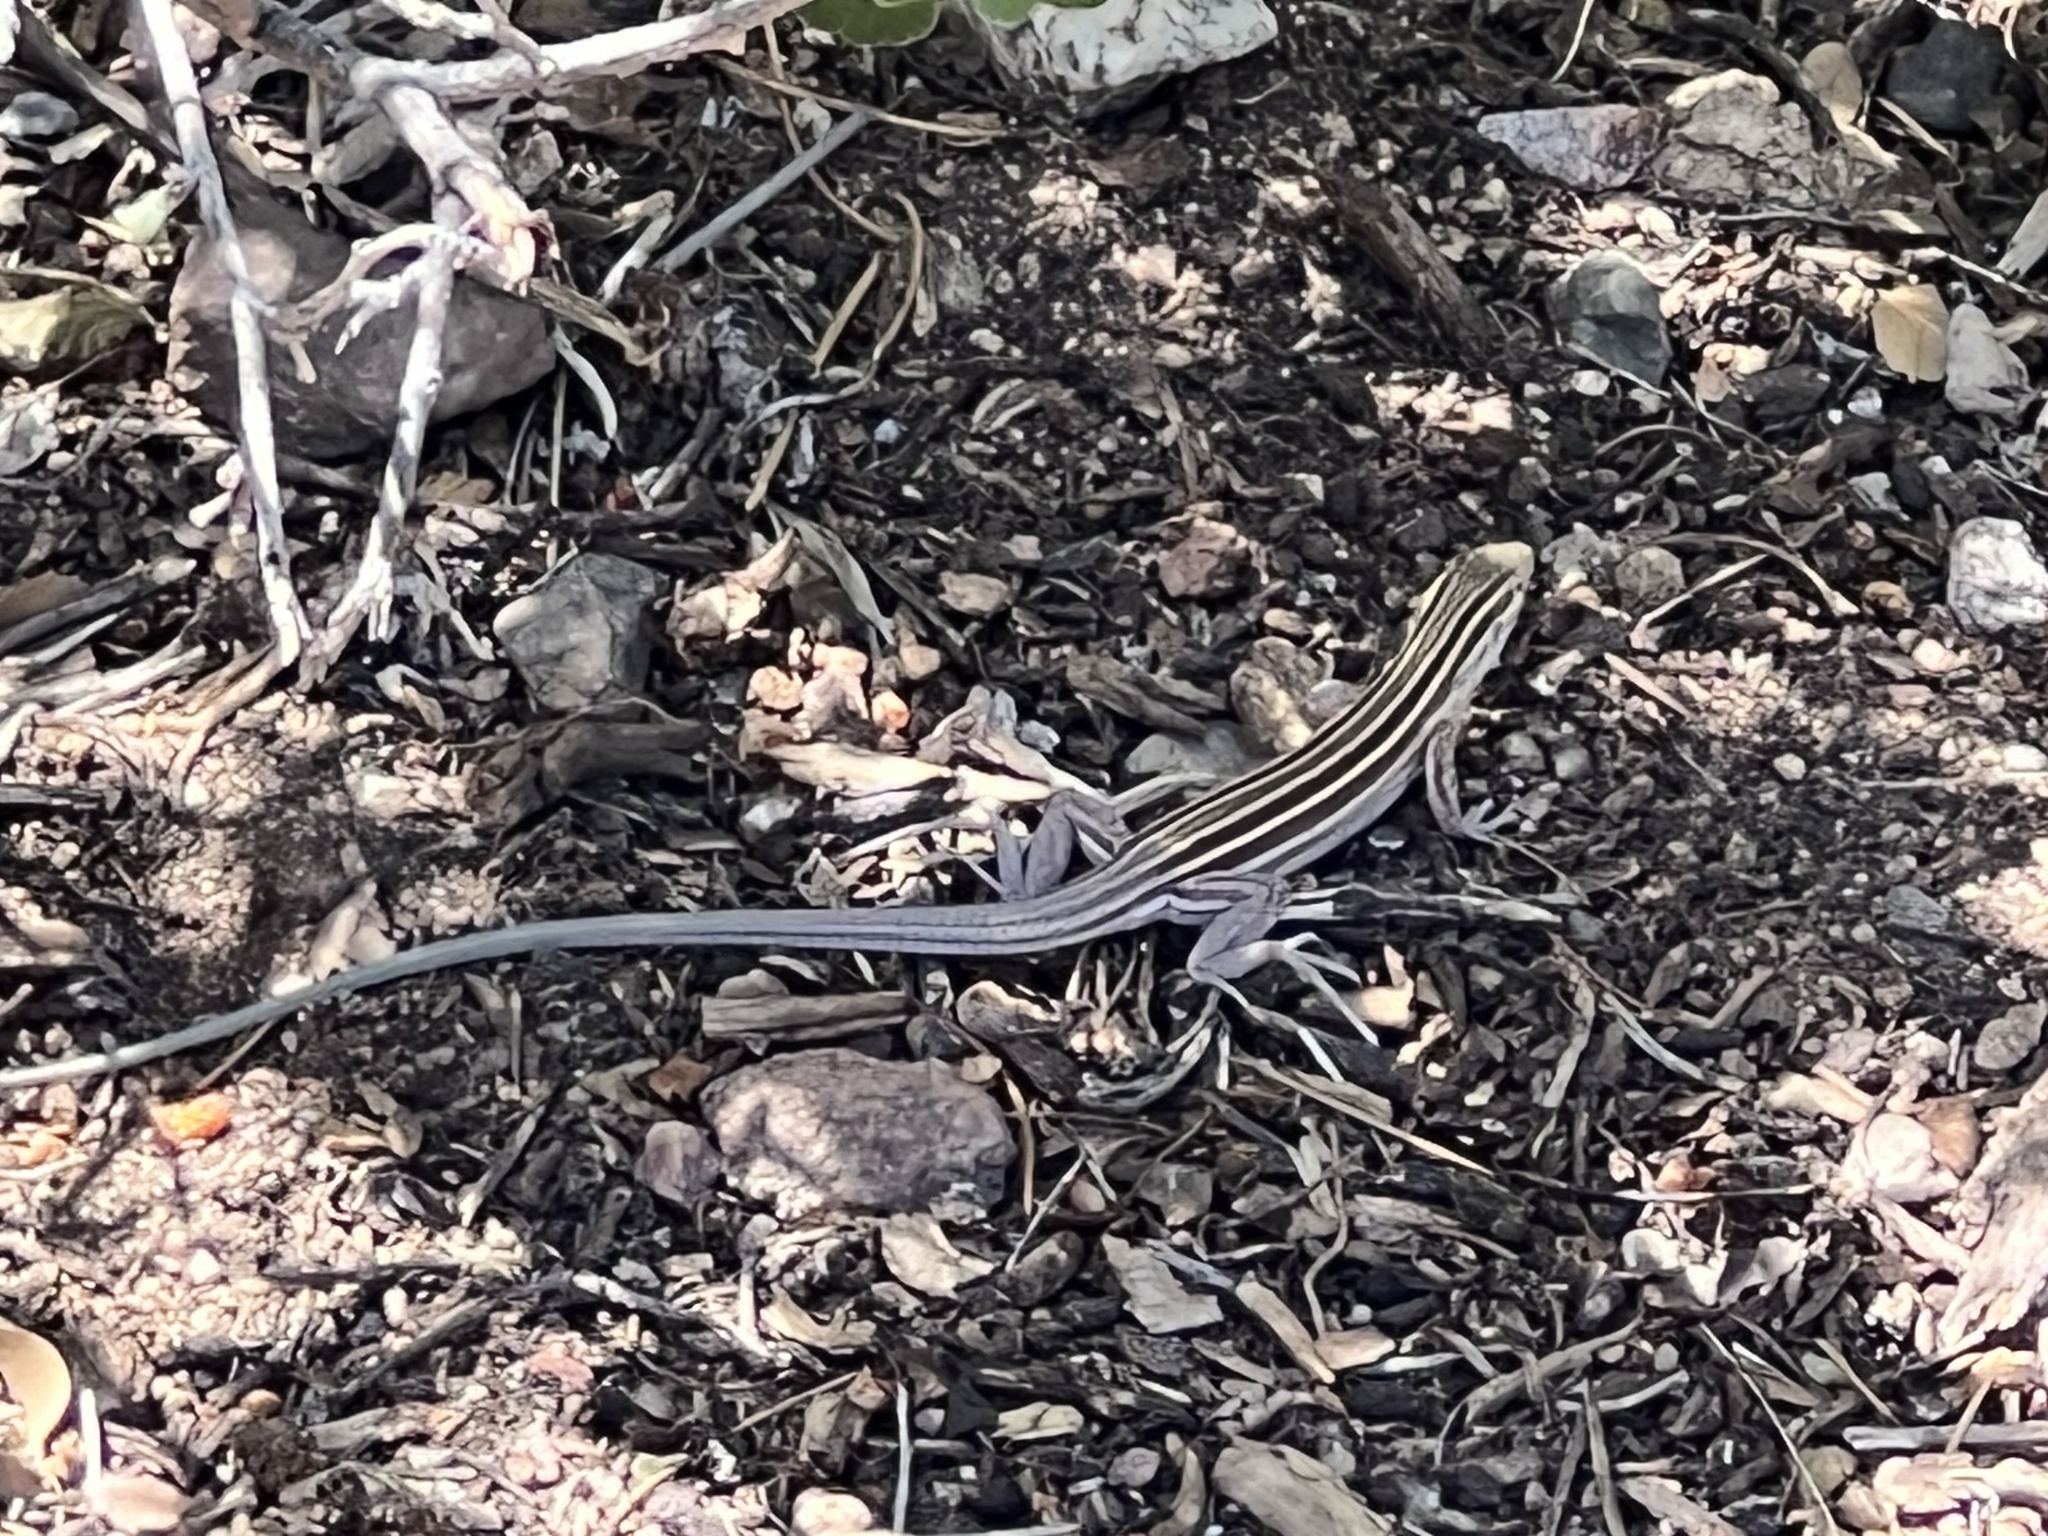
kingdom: Animalia
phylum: Chordata
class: Squamata
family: Teiidae
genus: Aspidoscelis
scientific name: Aspidoscelis velox
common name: Plateau striped whiptail
